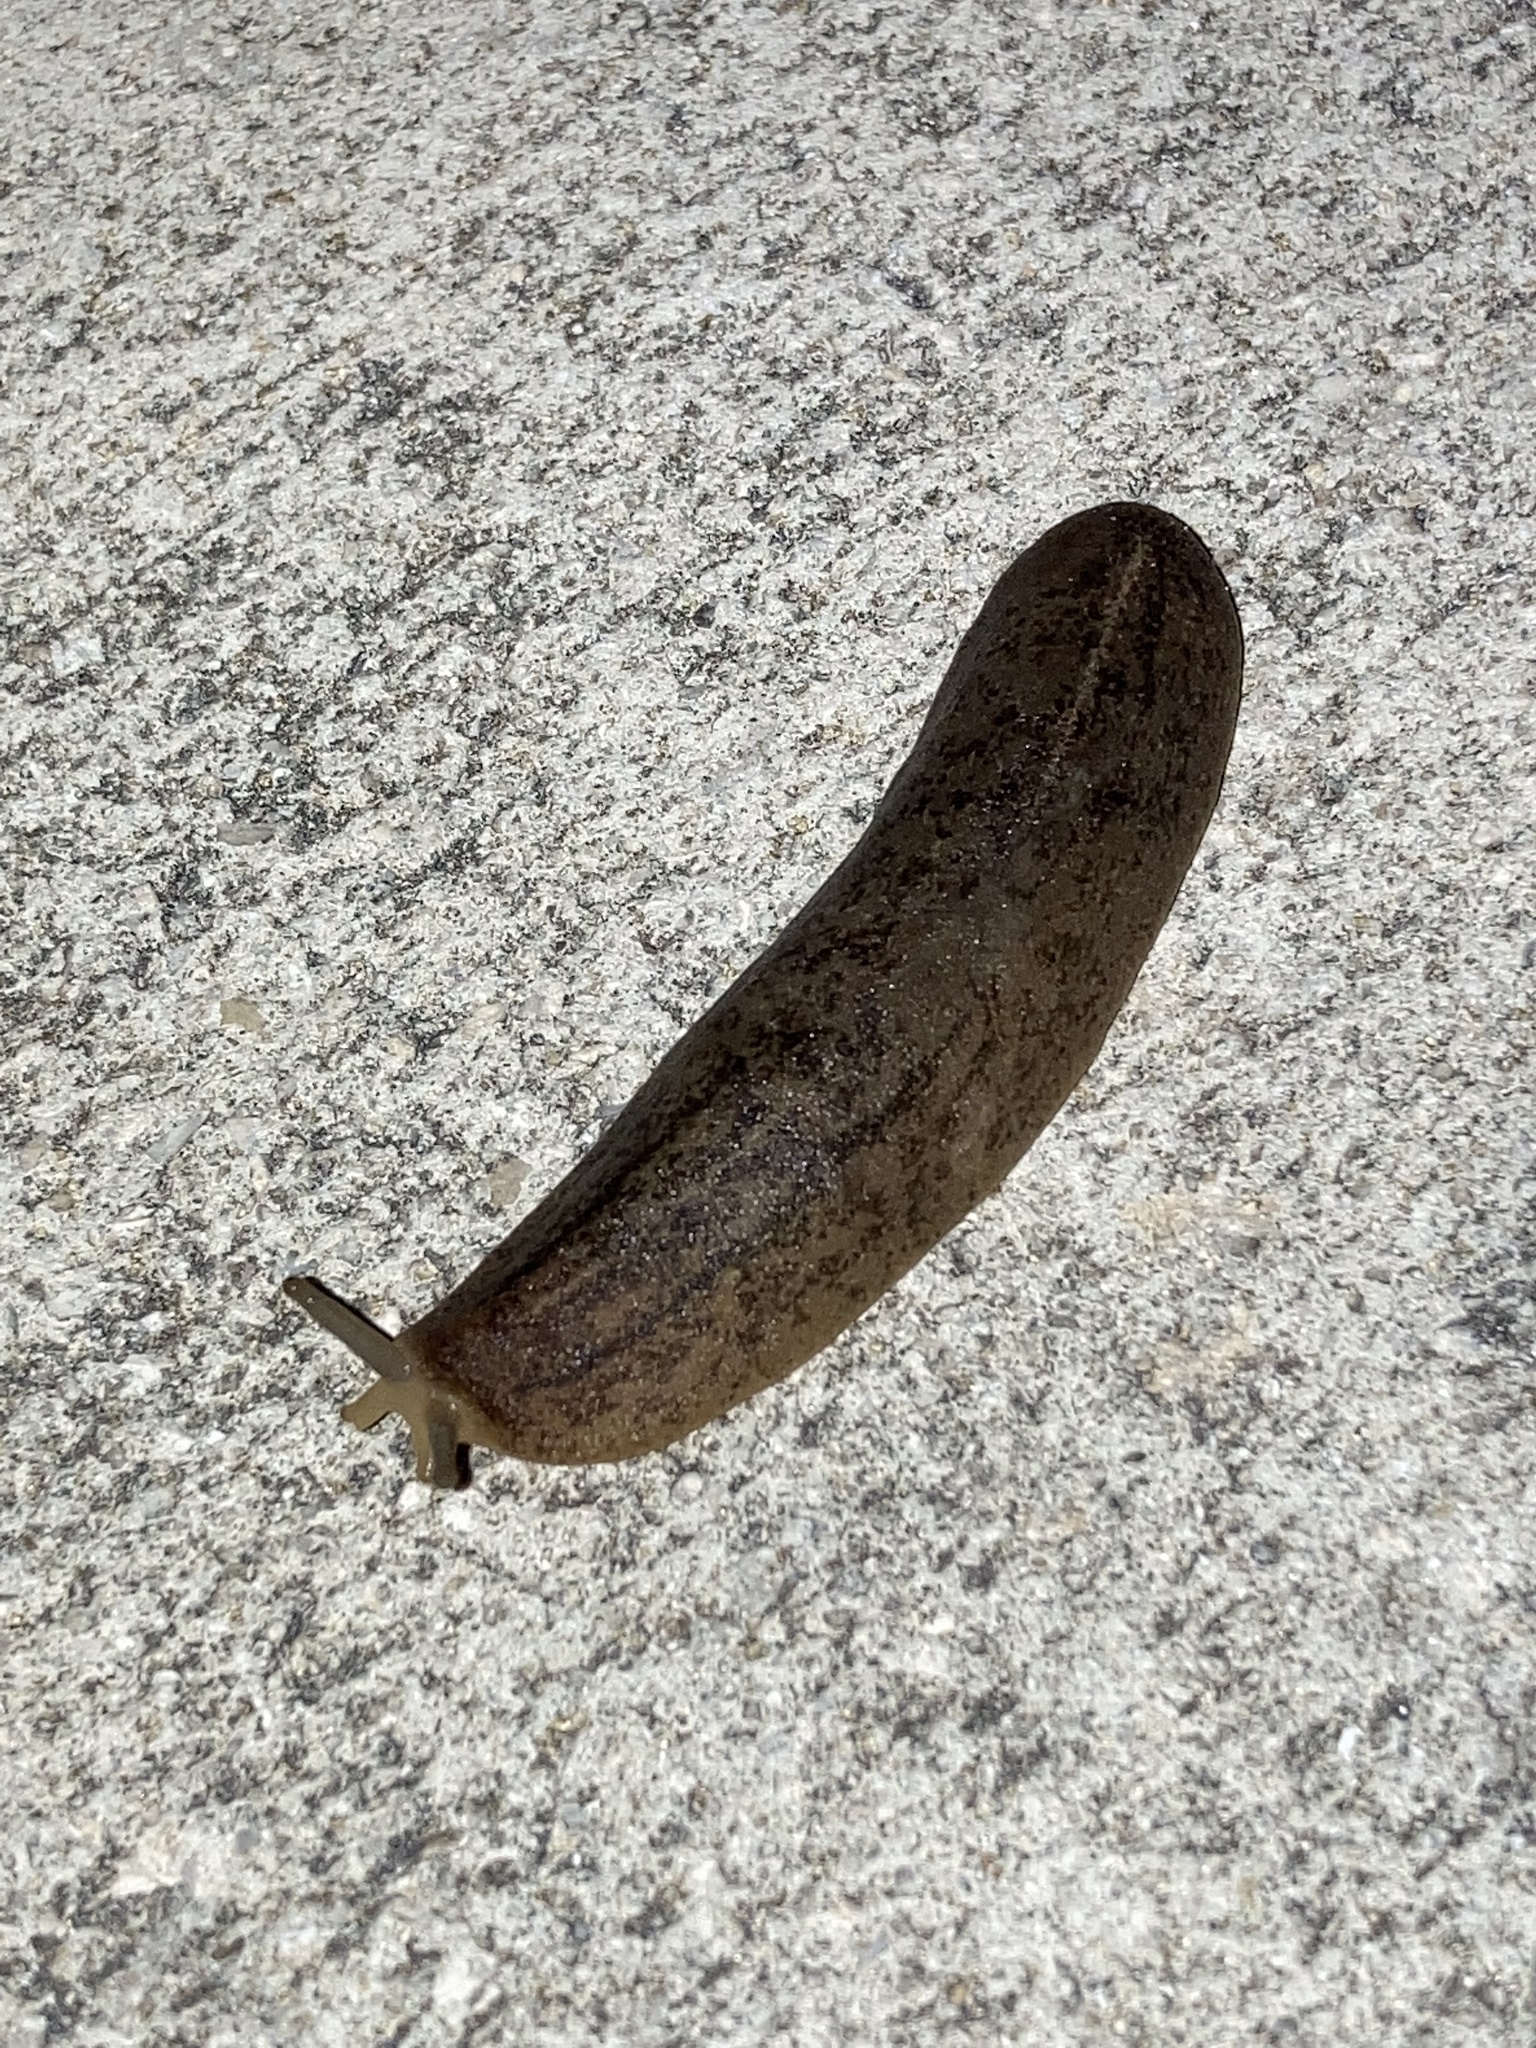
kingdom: Animalia
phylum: Mollusca
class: Gastropoda
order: Systellommatophora
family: Veronicellidae
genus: Leidyula
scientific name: Leidyula floridana
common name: Florida leatherleaf
